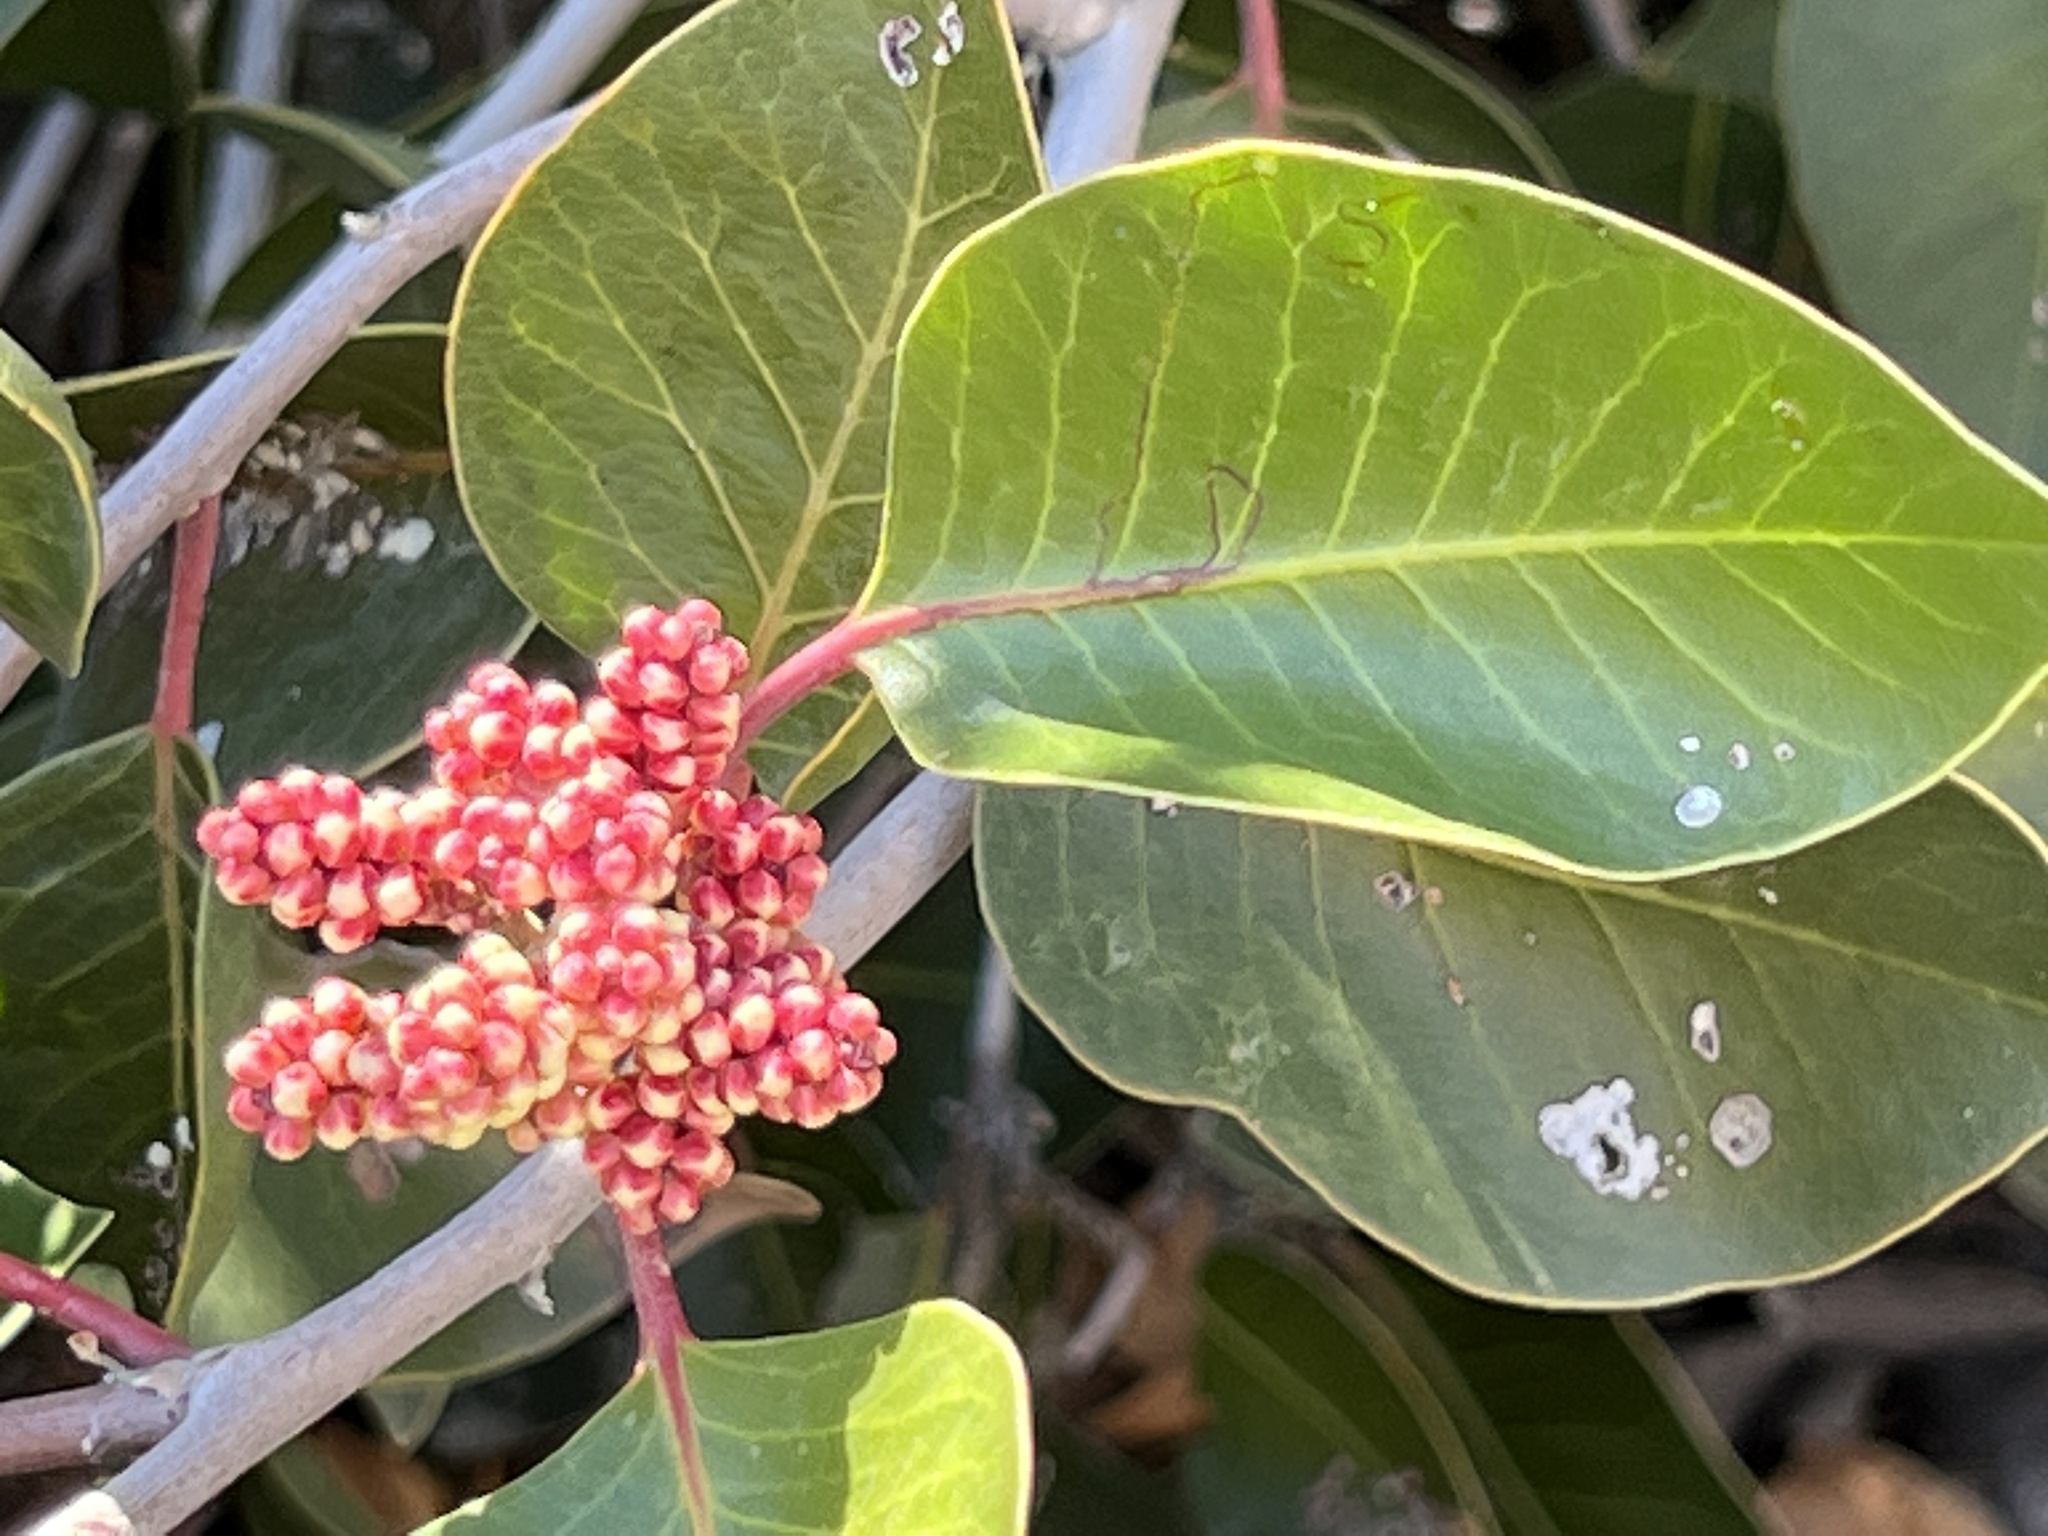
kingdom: Plantae
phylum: Tracheophyta
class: Magnoliopsida
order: Sapindales
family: Anacardiaceae
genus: Rhus
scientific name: Rhus ovata
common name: Sugar sumac
